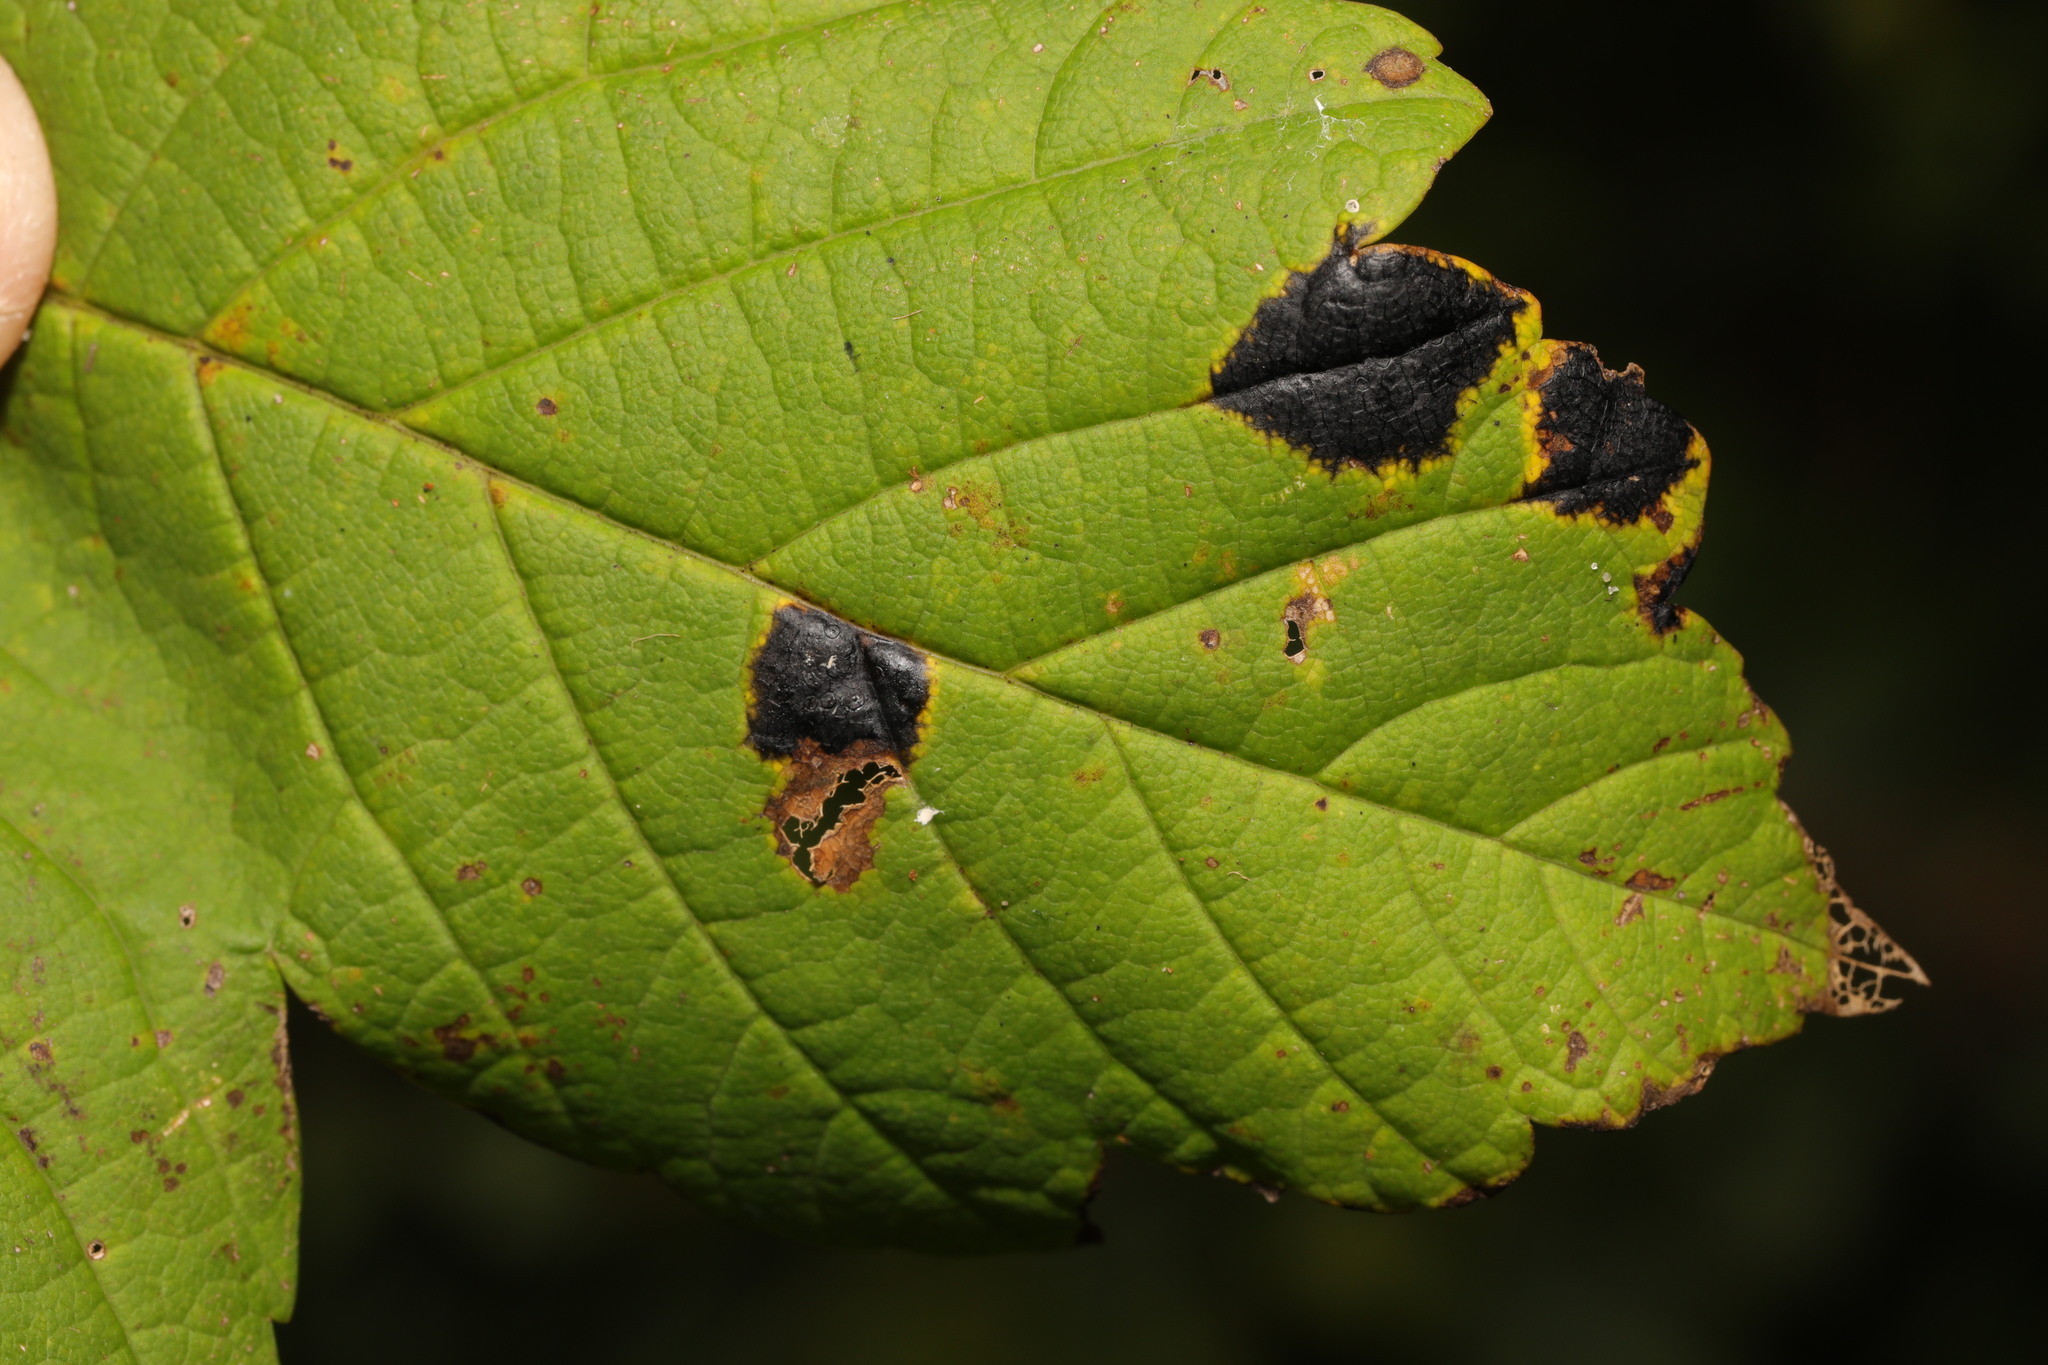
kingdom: Fungi
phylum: Ascomycota
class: Leotiomycetes
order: Rhytismatales
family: Rhytismataceae
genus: Rhytisma
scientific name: Rhytisma acerinum
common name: European tar spot
